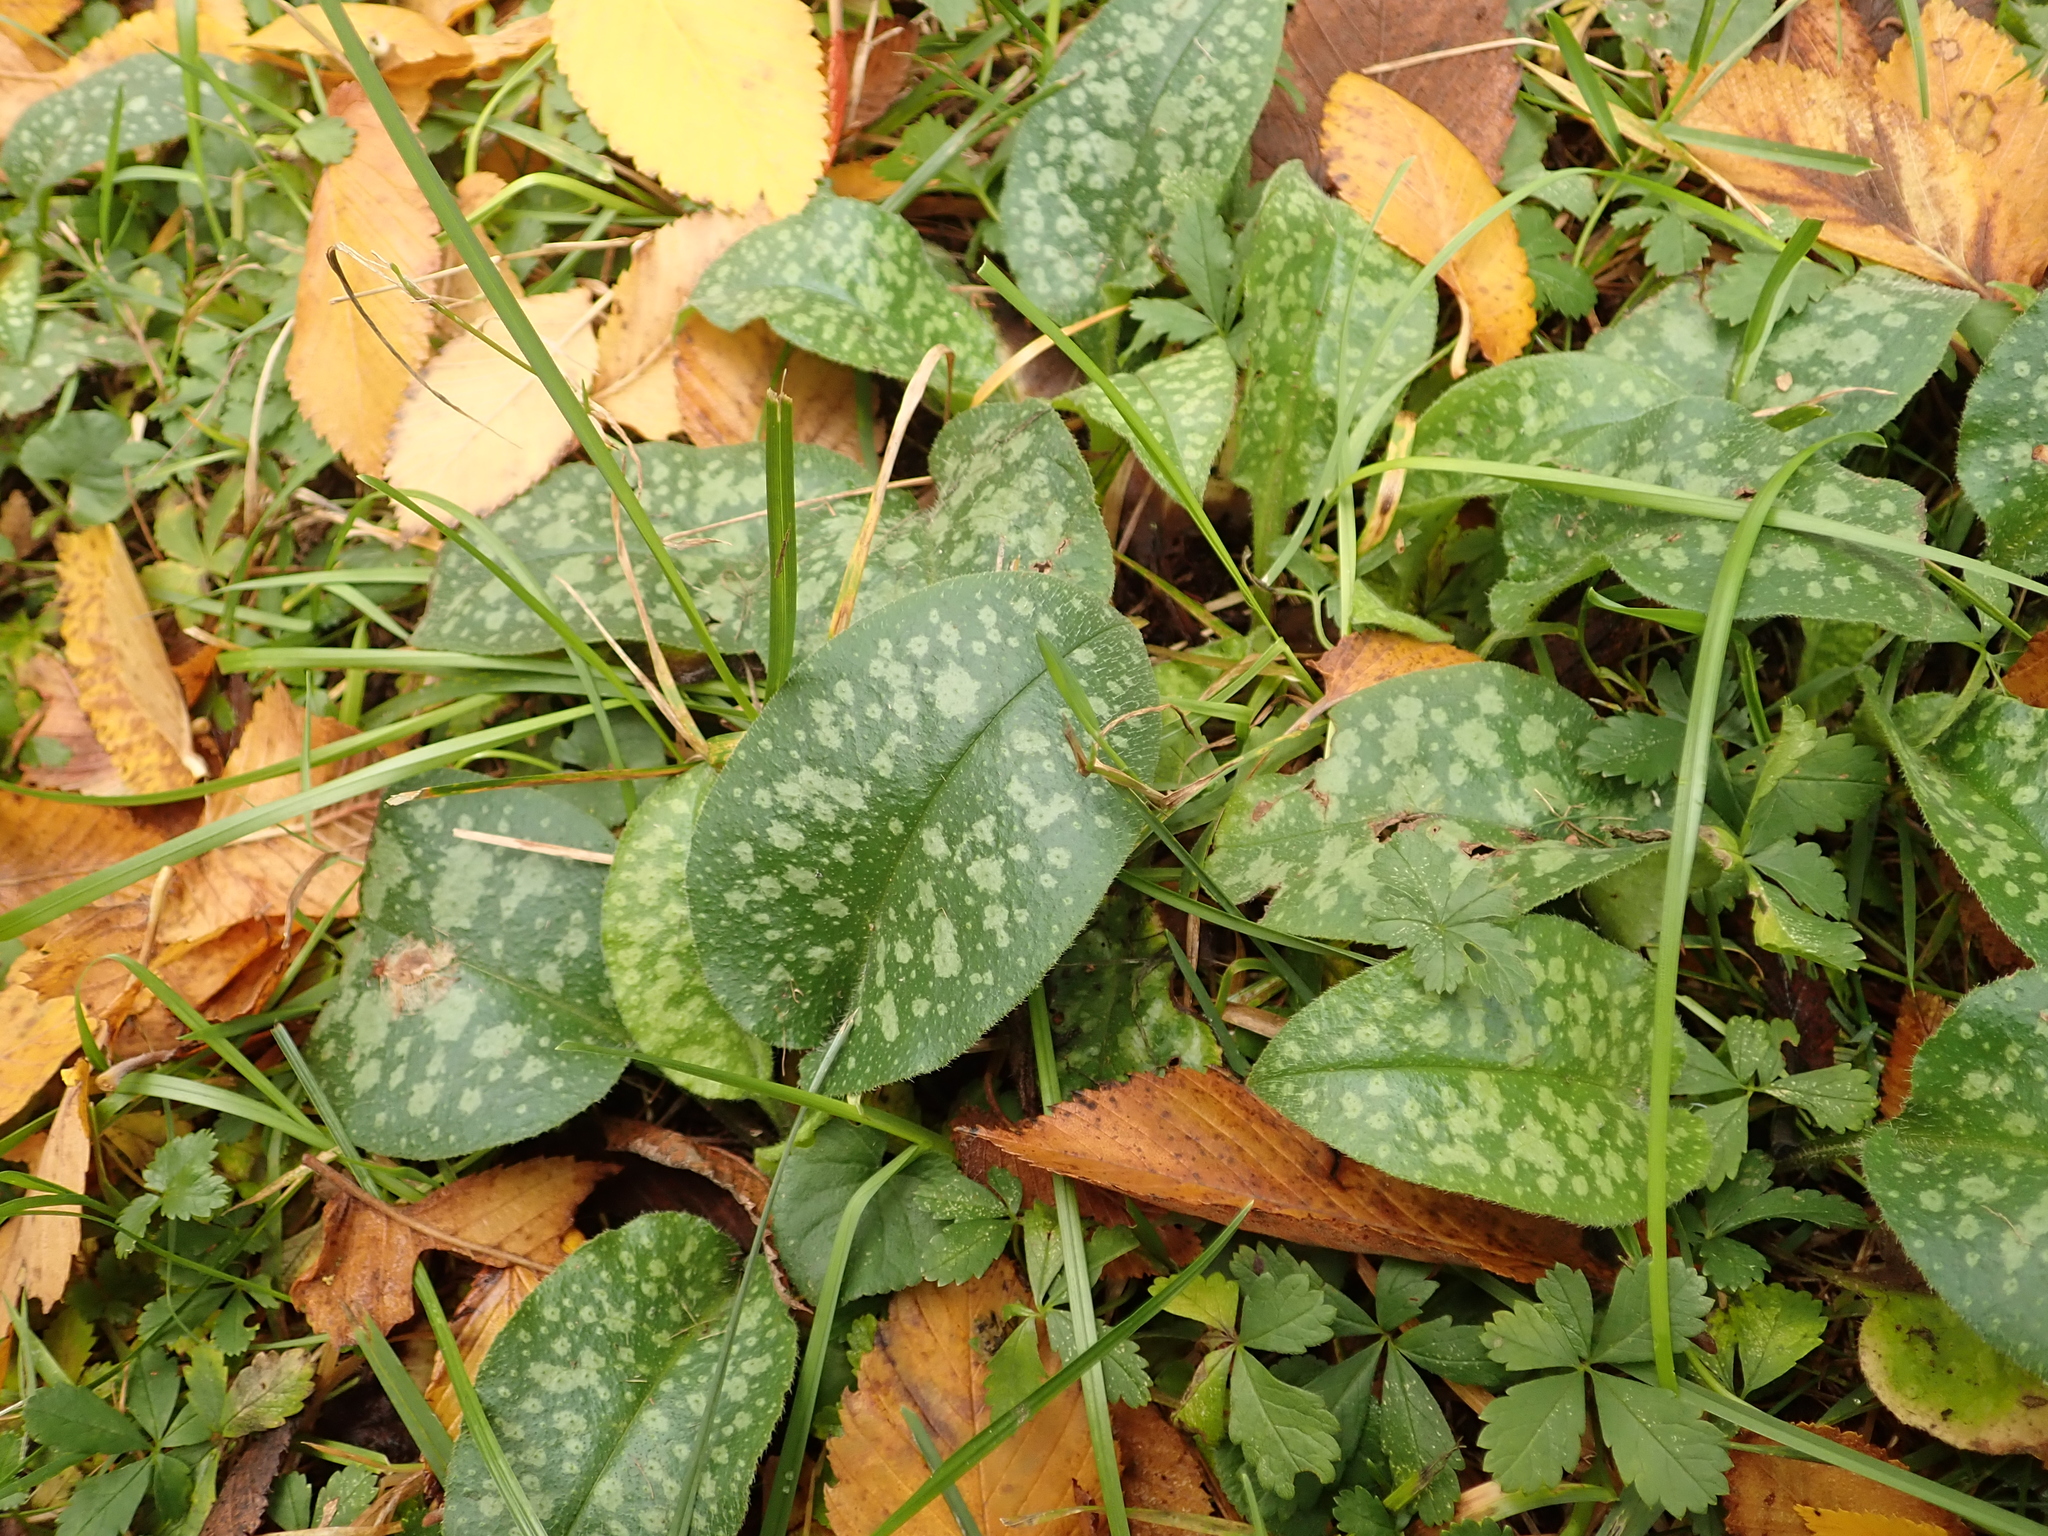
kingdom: Plantae
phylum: Tracheophyta
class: Magnoliopsida
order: Boraginales
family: Boraginaceae
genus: Pulmonaria
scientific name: Pulmonaria saccharata
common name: Bethlehem lungwort
